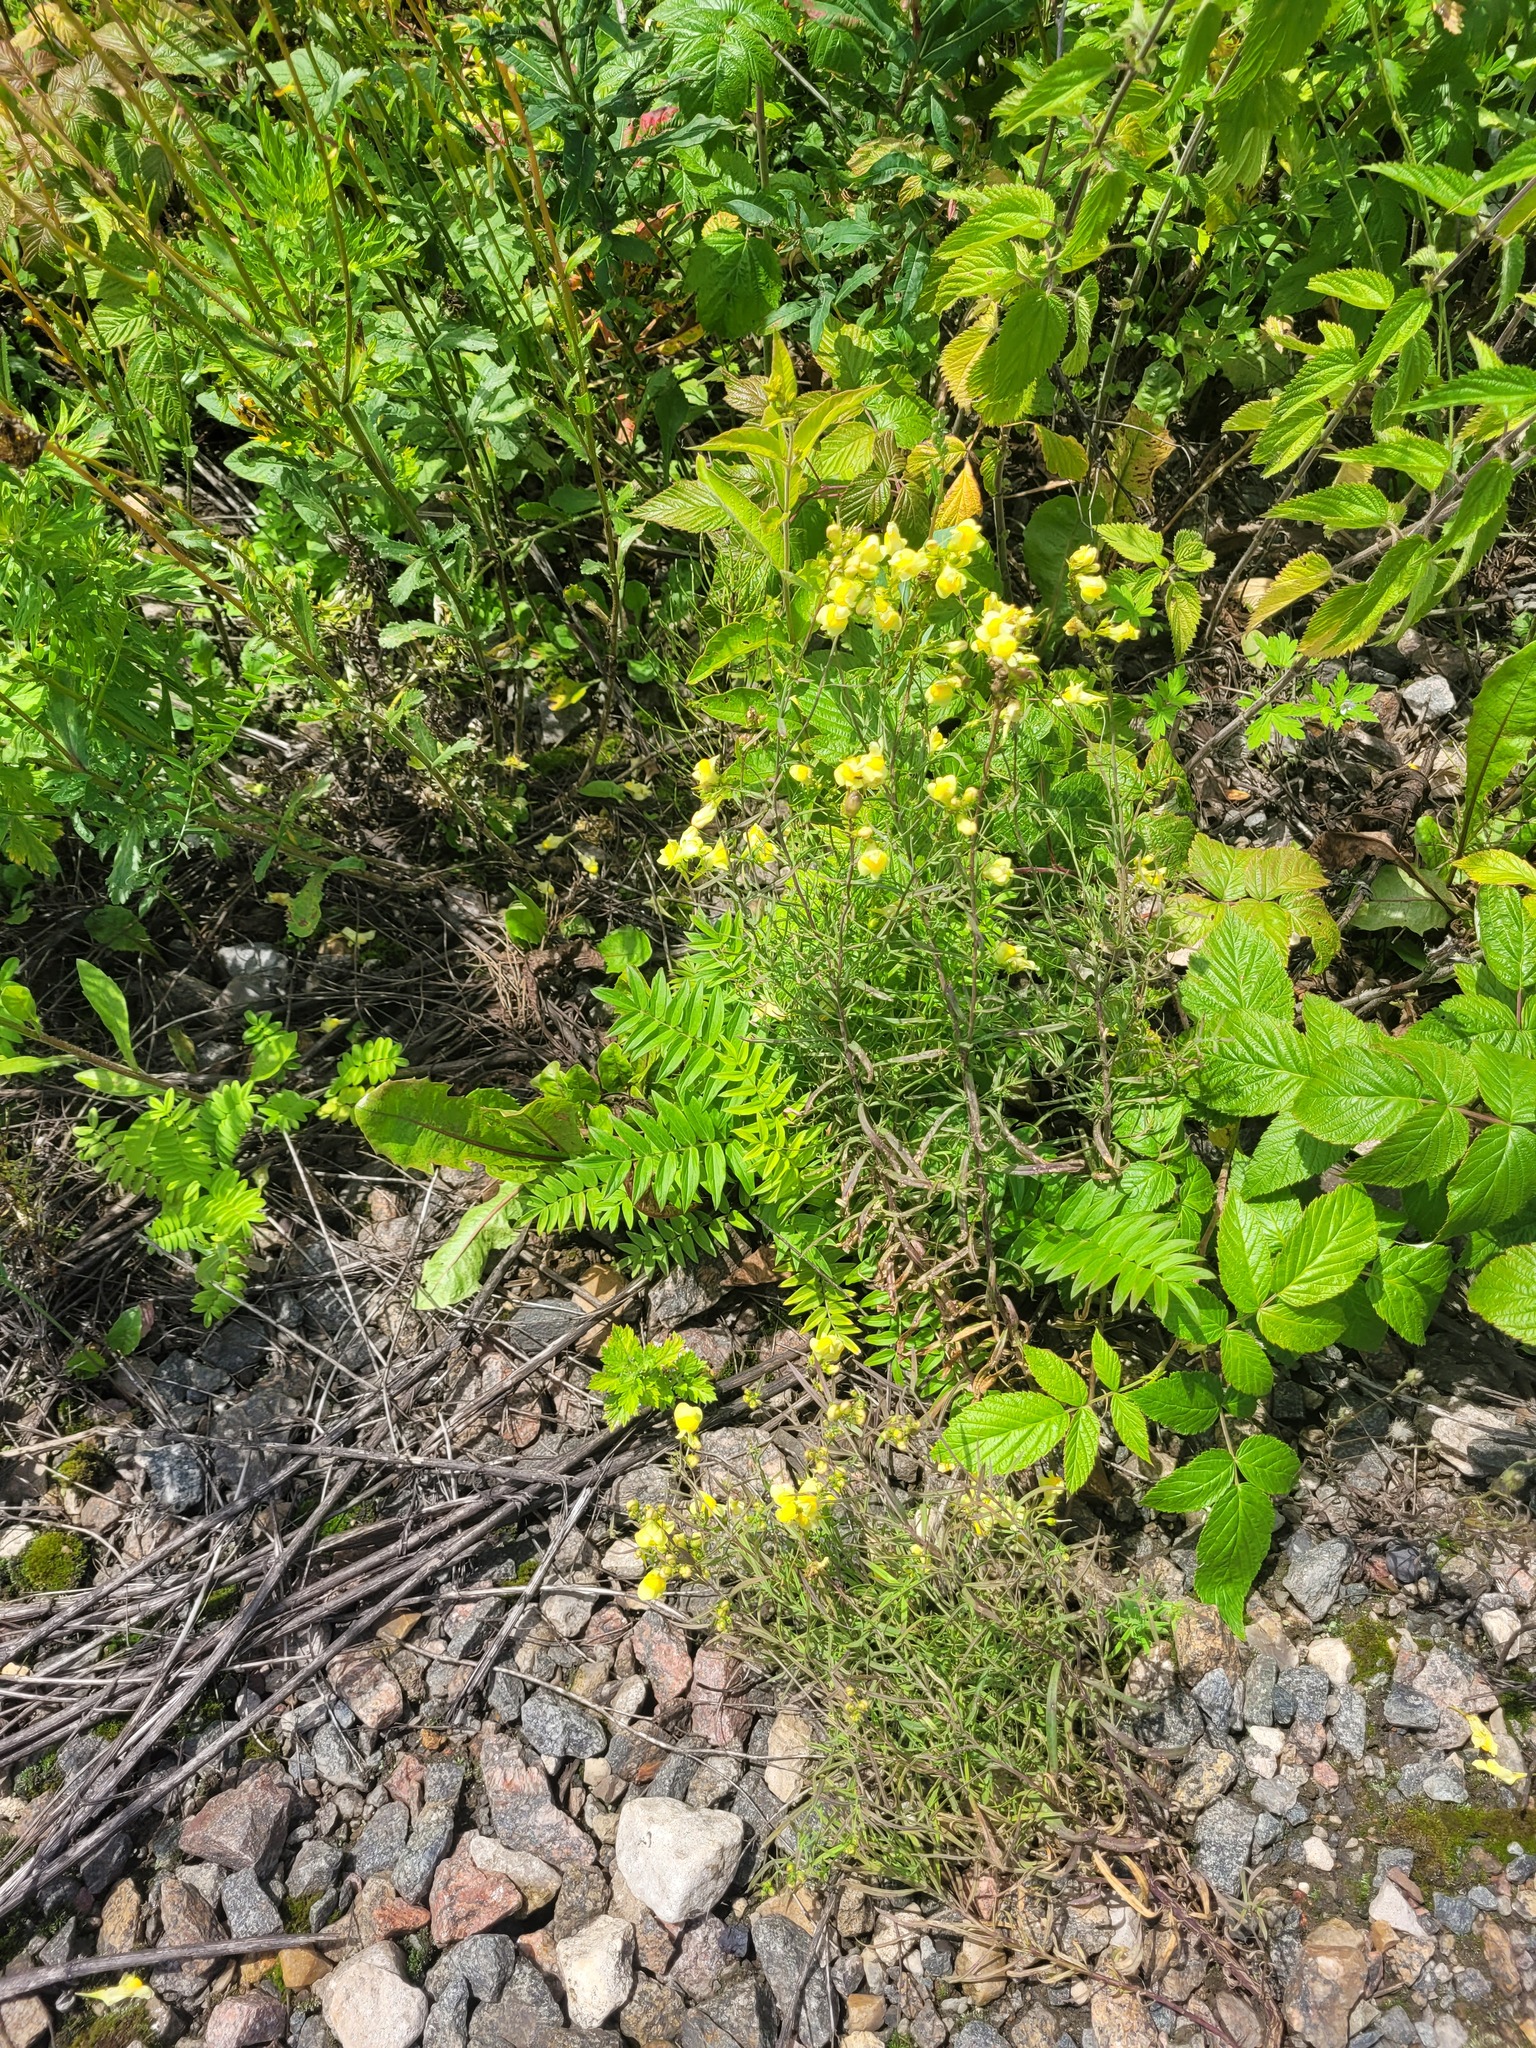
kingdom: Plantae
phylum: Tracheophyta
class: Magnoliopsida
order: Ericales
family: Polemoniaceae
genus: Polemonium
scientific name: Polemonium caeruleum
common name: Jacob's-ladder
